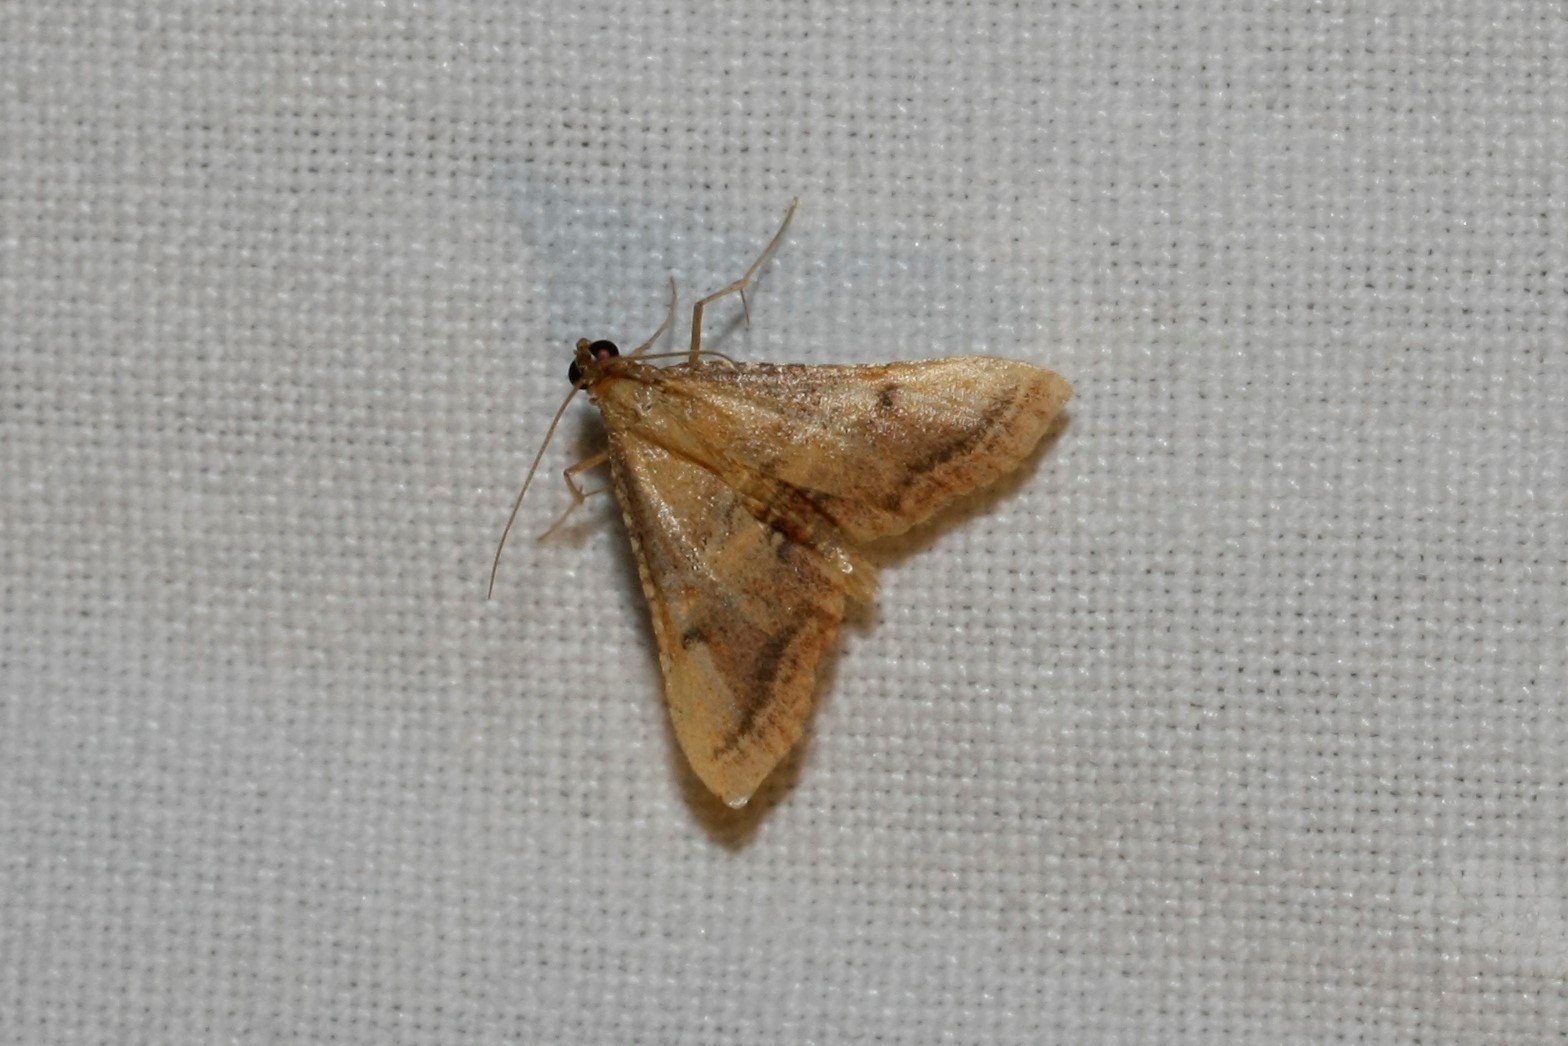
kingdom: Animalia
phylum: Arthropoda
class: Insecta
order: Lepidoptera
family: Pyralidae
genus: Endotricha
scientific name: Endotricha flammealis
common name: Rosy tabby
